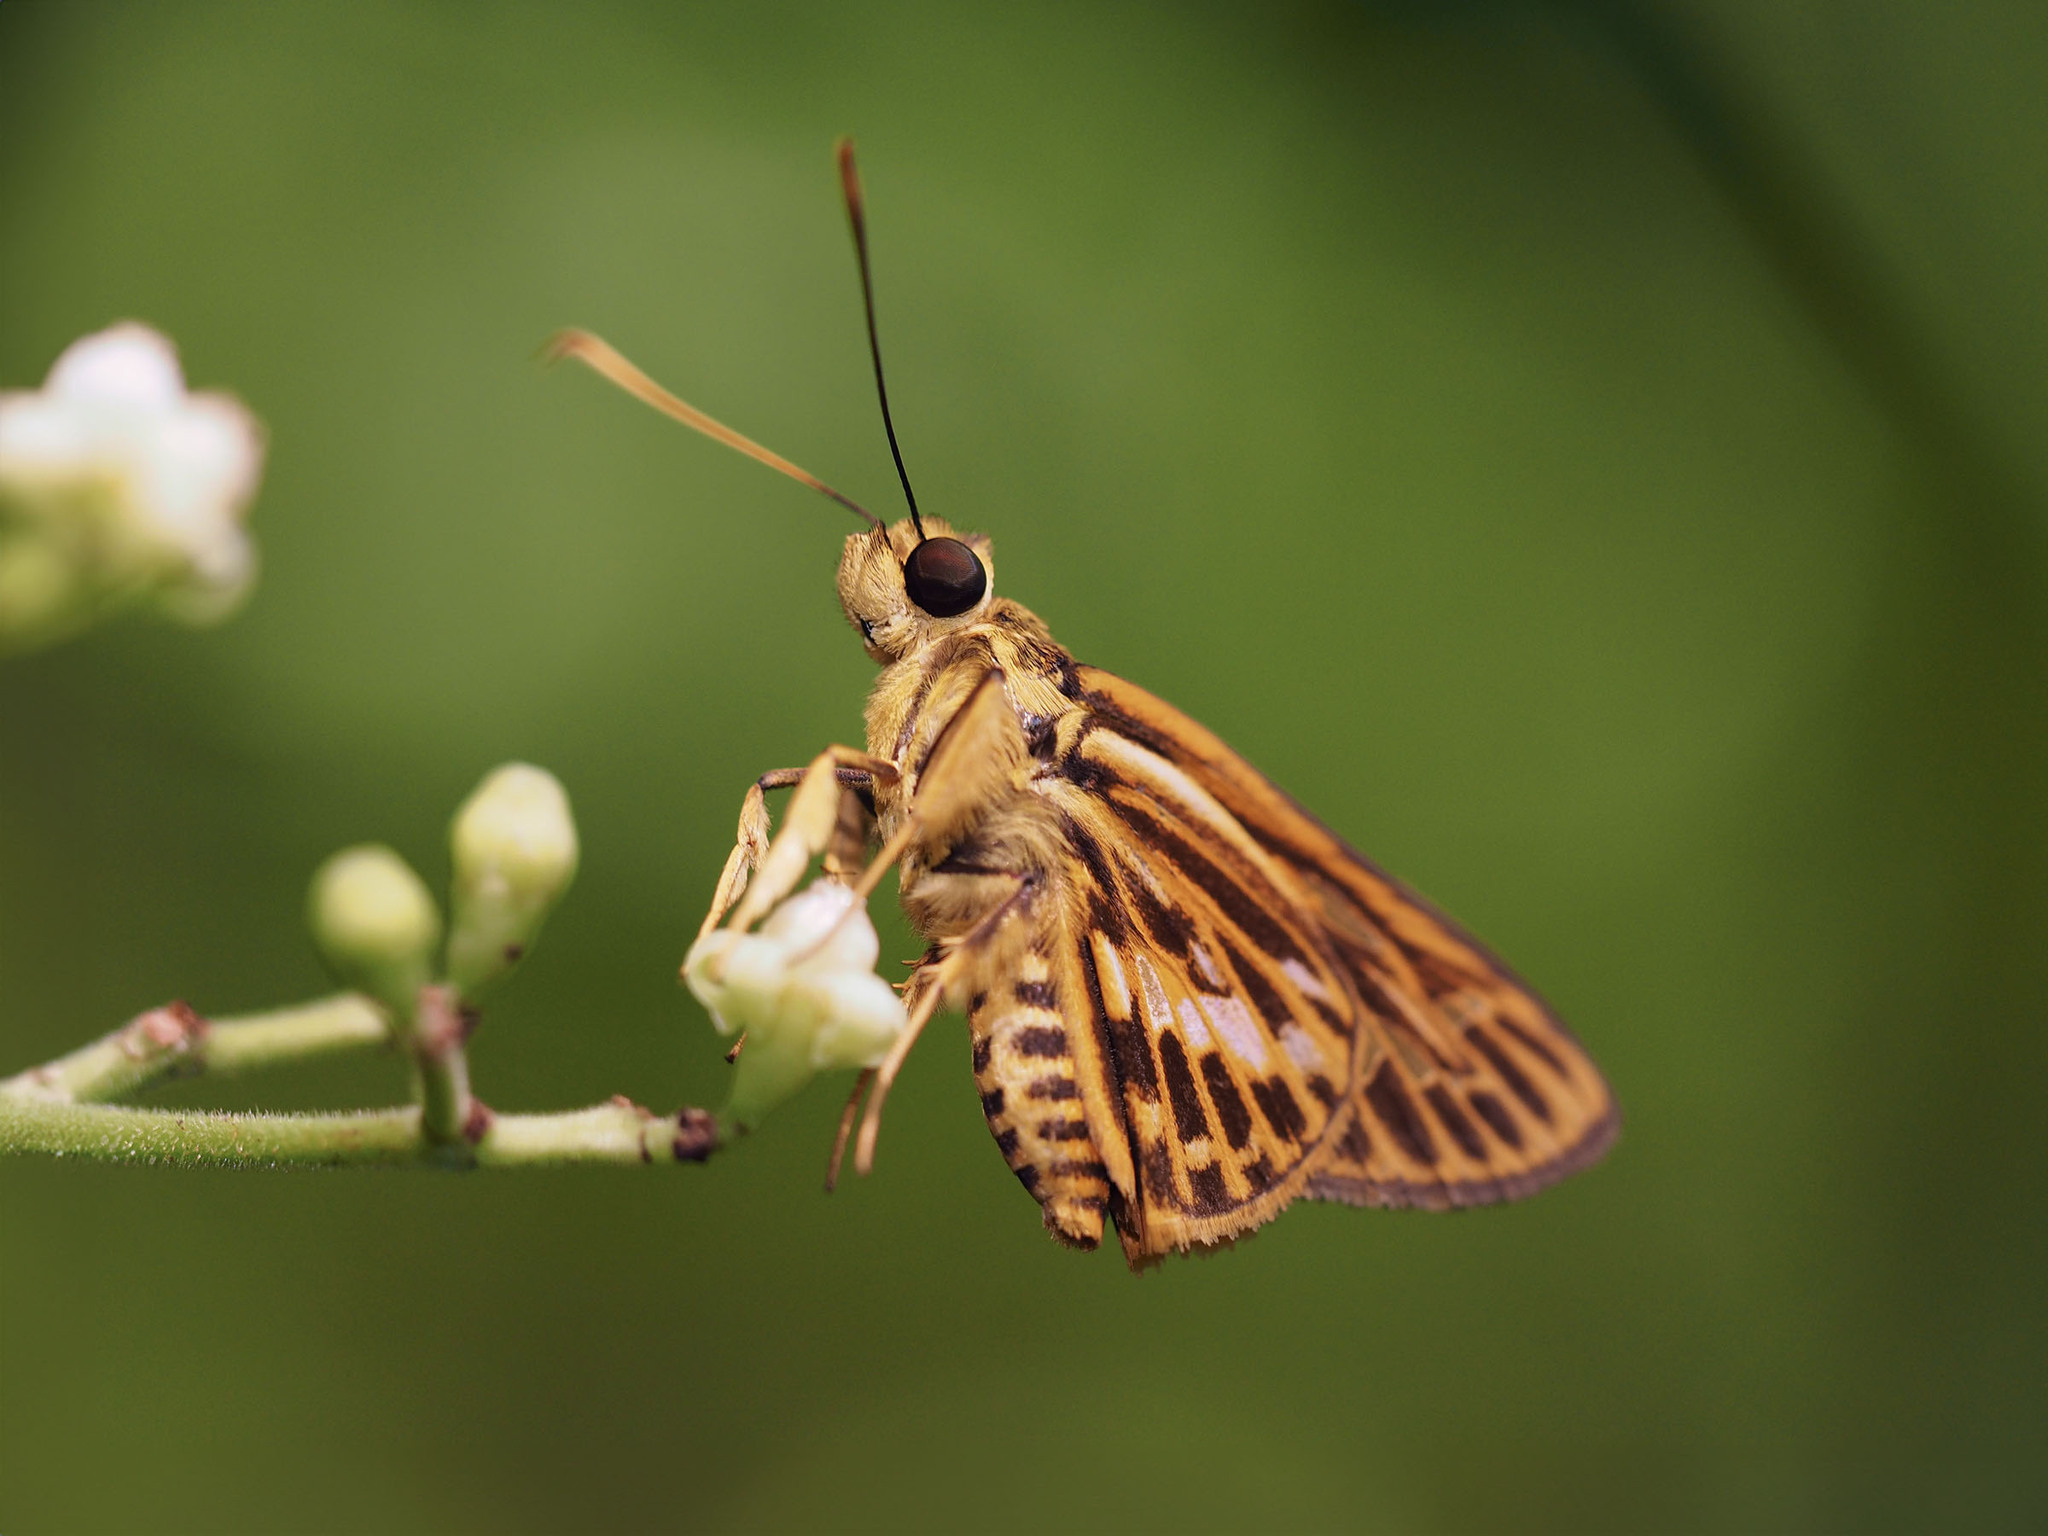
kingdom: Animalia
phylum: Arthropoda
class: Insecta
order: Lepidoptera
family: Hesperiidae
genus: Pyroneura
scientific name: Pyroneura latoia
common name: Yellow vein lancer
